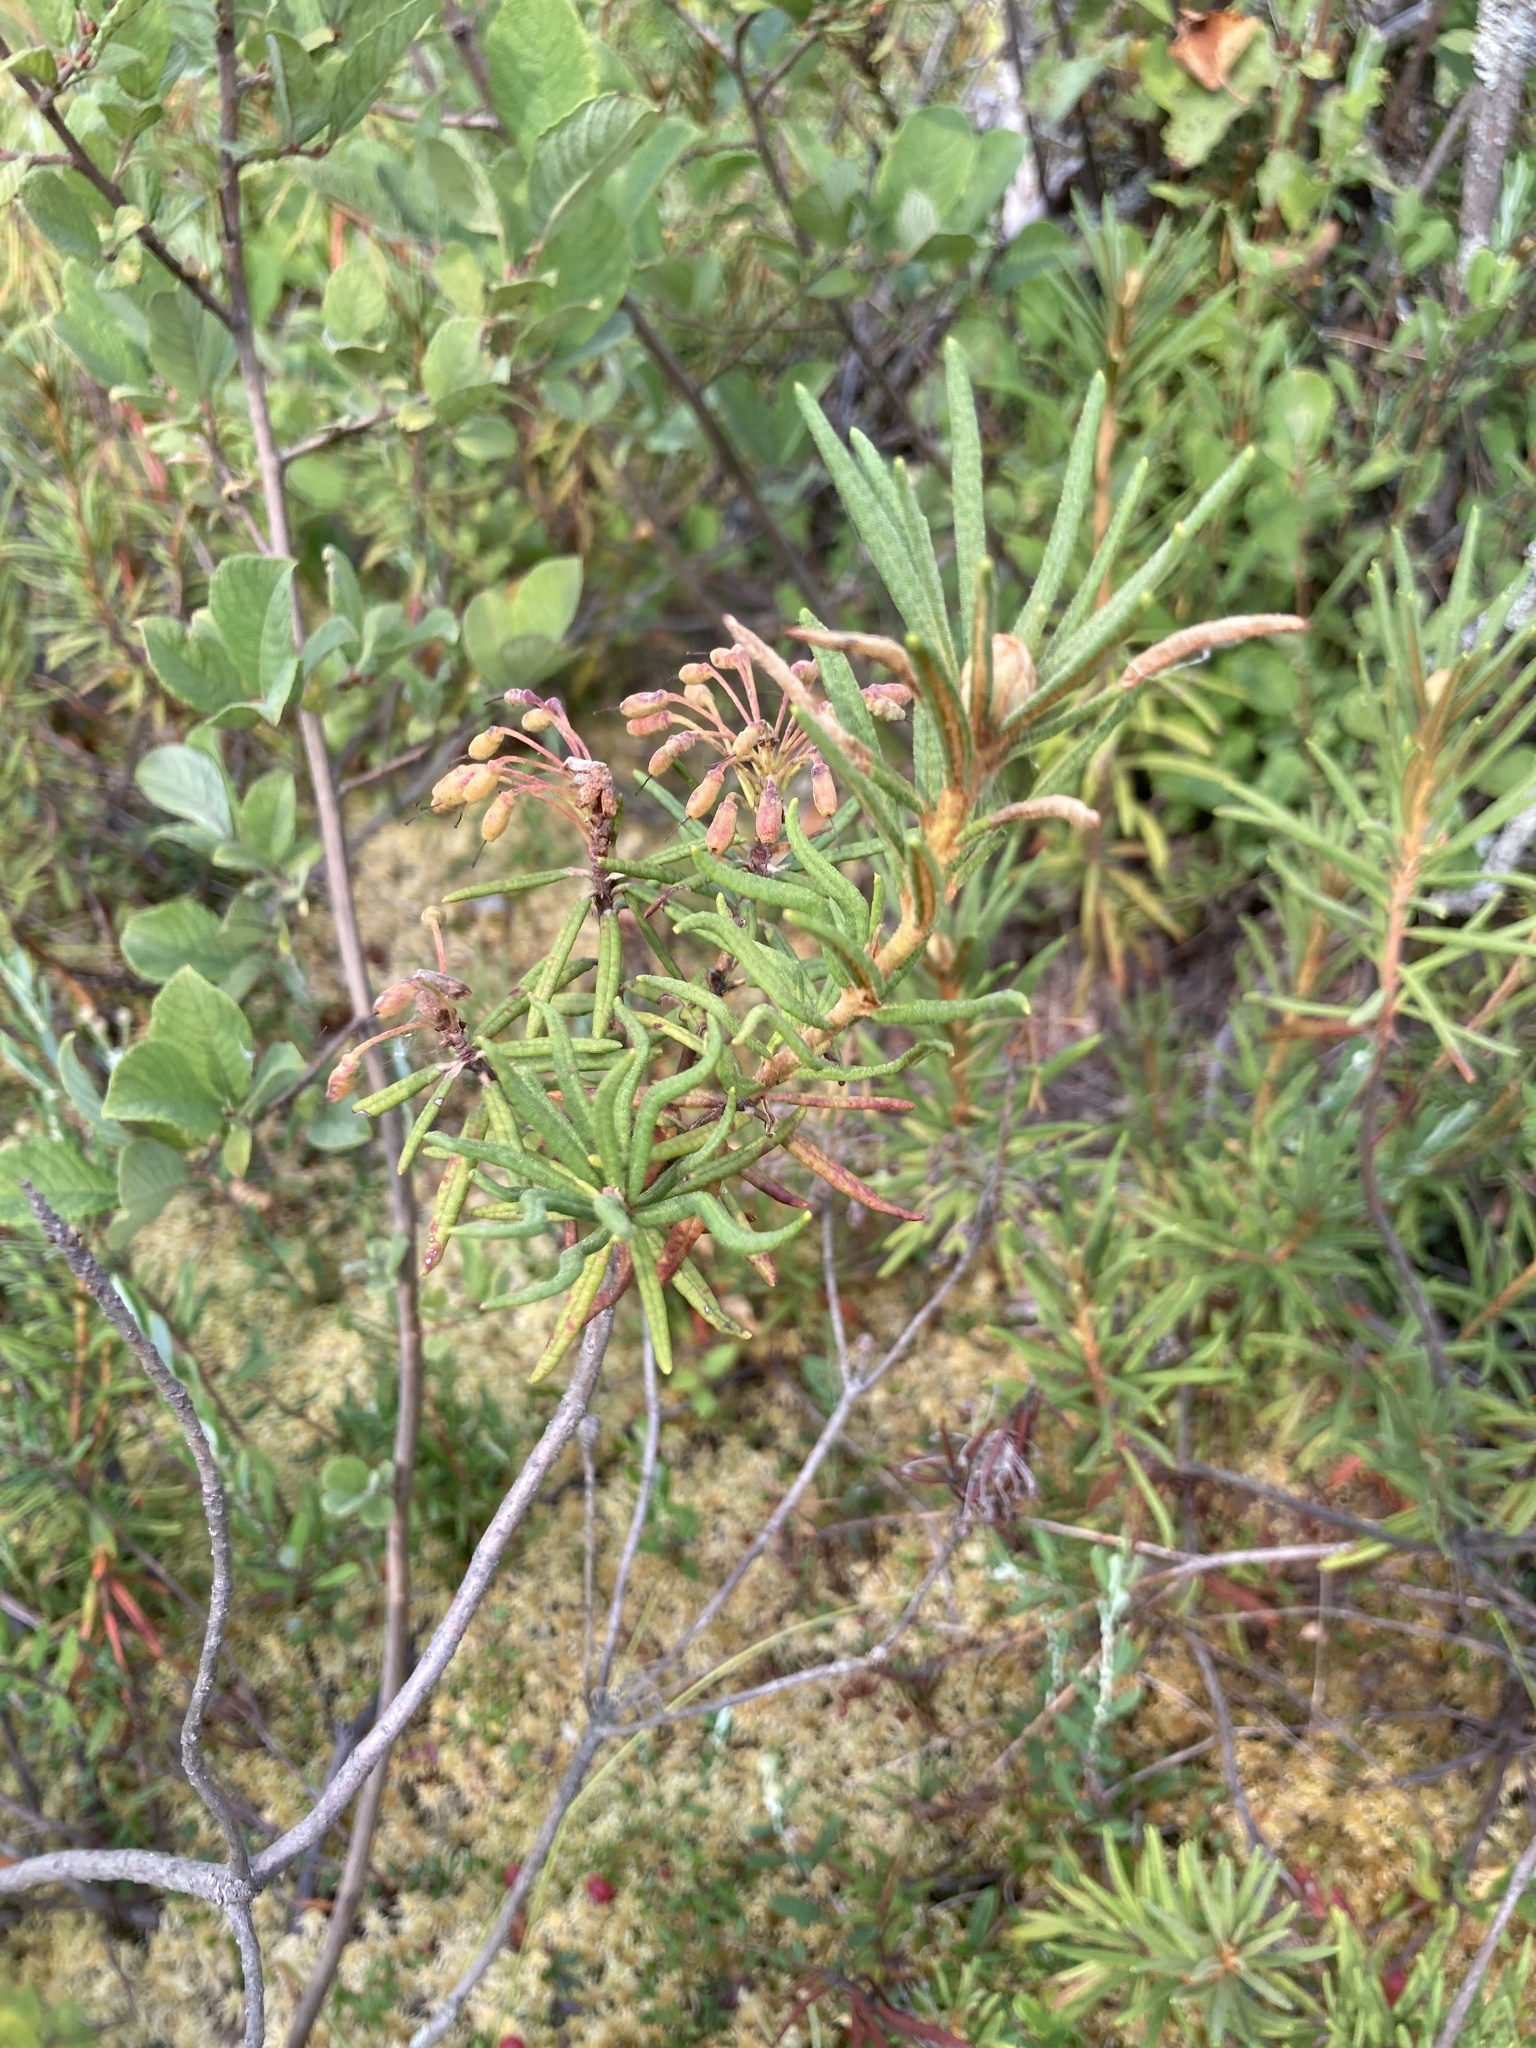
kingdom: Plantae
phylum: Tracheophyta
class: Magnoliopsida
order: Ericales
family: Ericaceae
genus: Rhododendron
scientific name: Rhododendron tomentosum
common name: Marsh labrador tea
